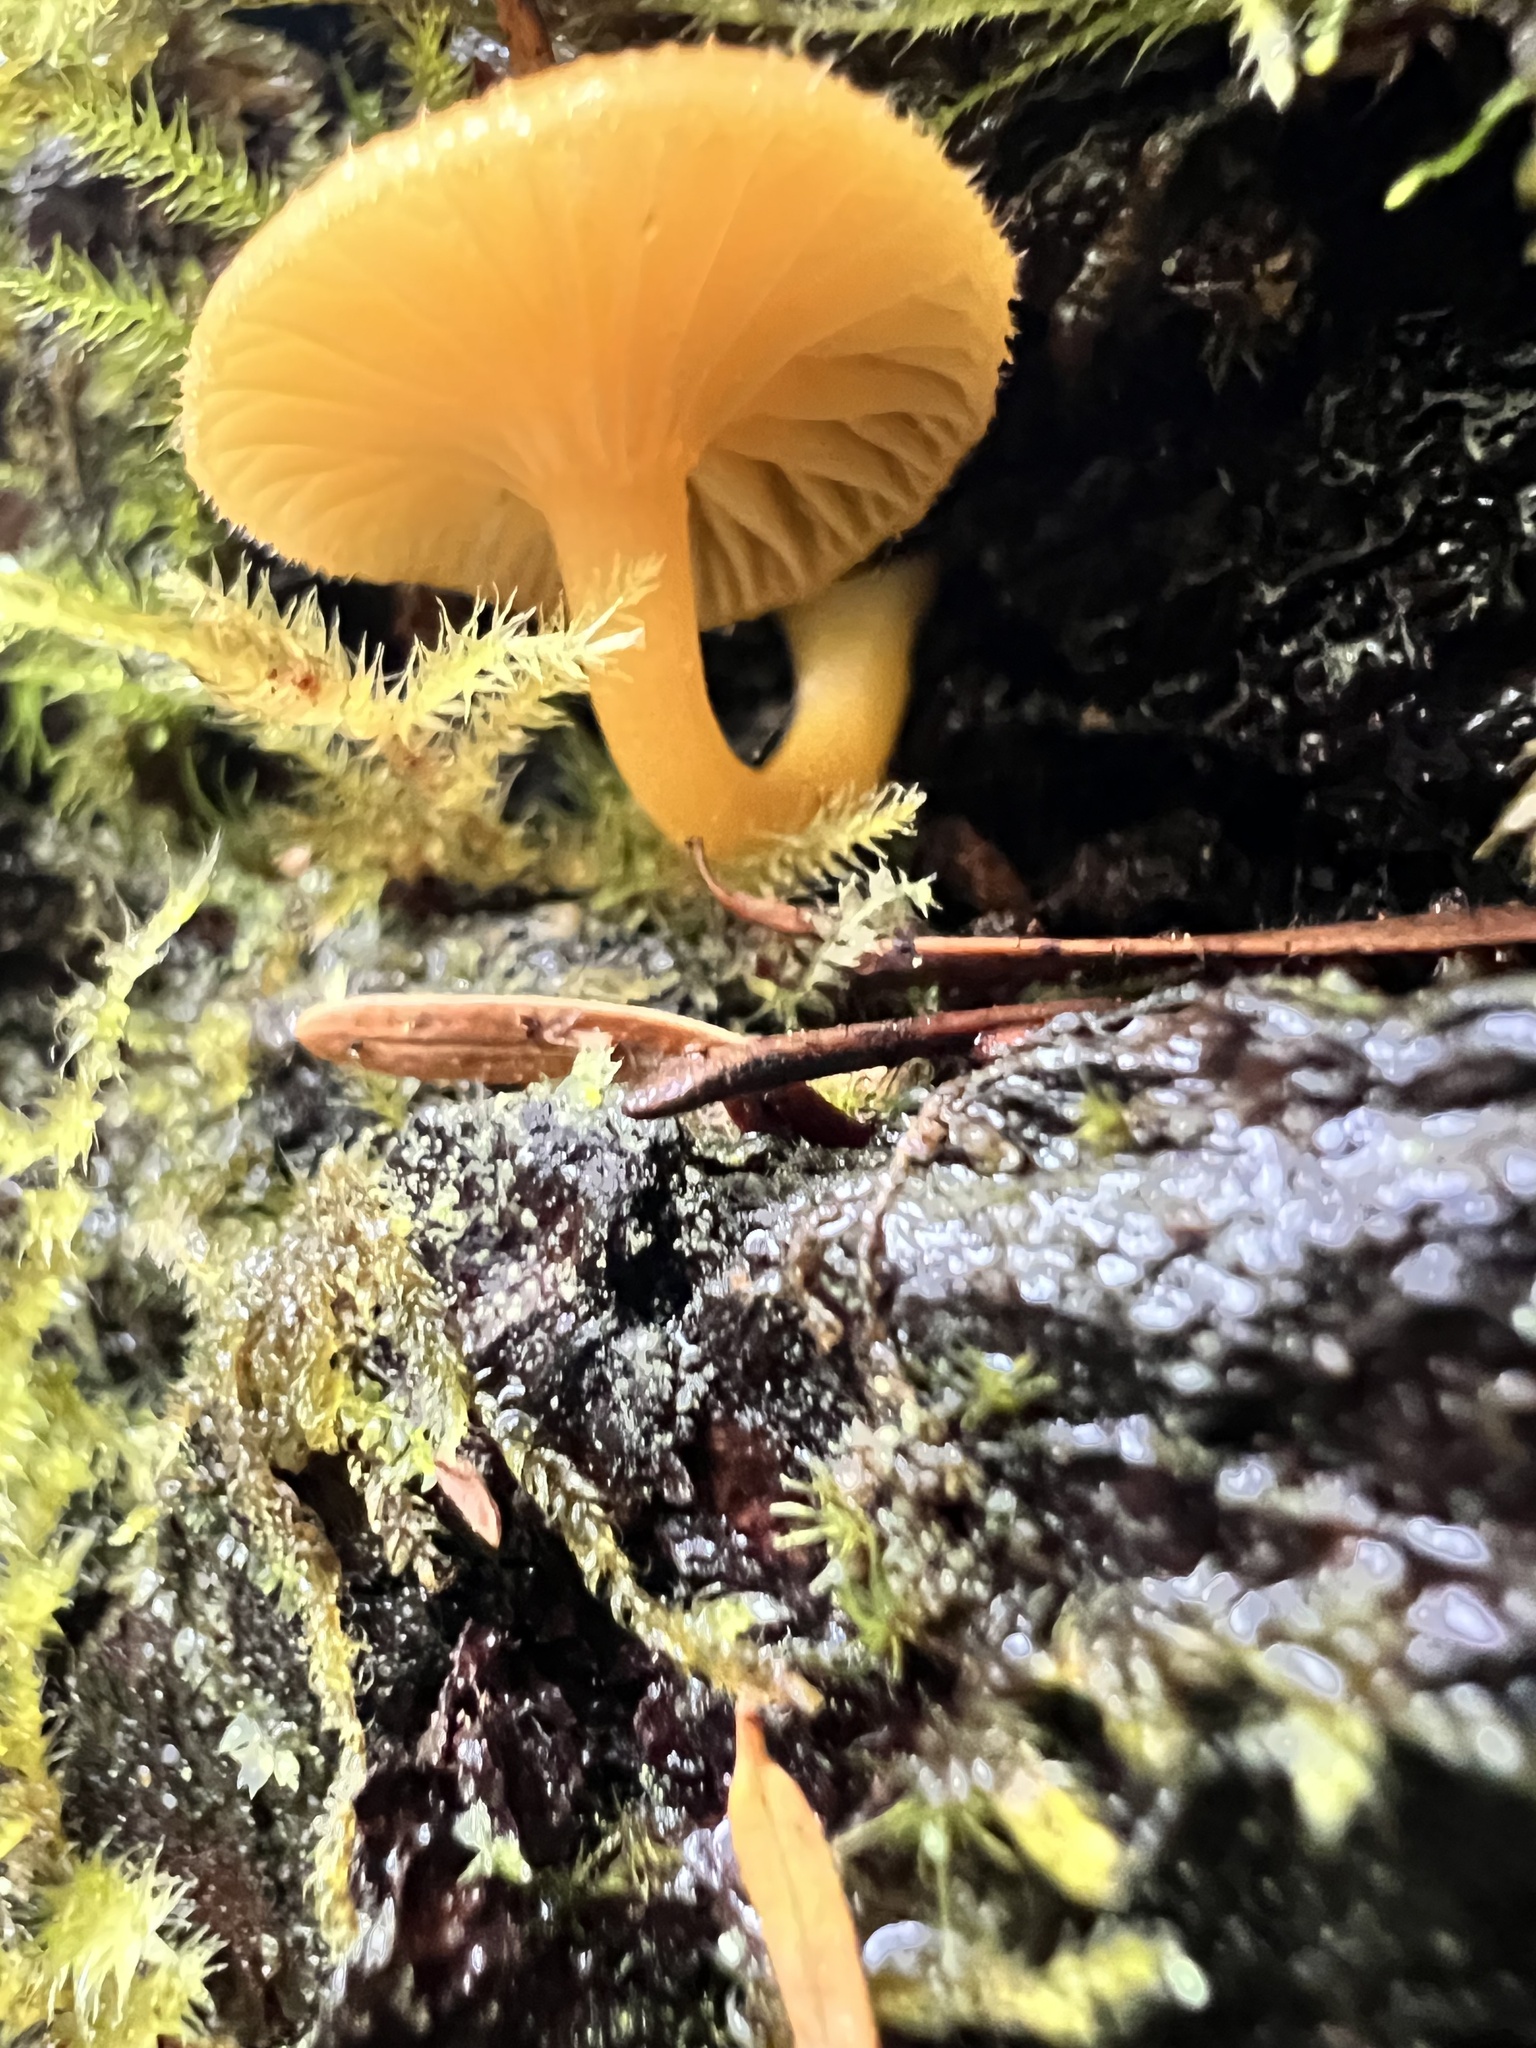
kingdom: Fungi
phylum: Basidiomycota
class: Agaricomycetes
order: Agaricales
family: Hygrophoraceae
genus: Chrysomphalina
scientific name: Chrysomphalina aurantiaca
